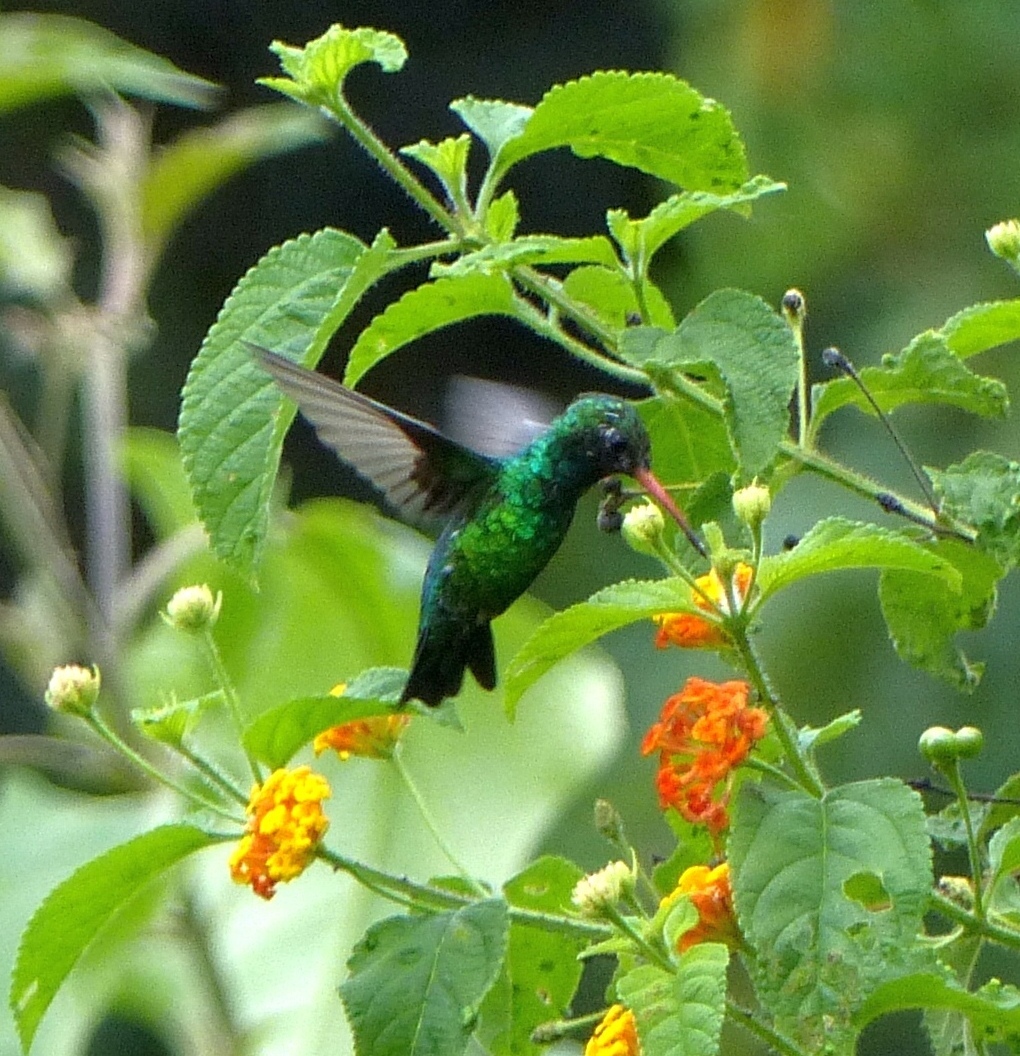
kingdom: Animalia
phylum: Chordata
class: Aves
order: Apodiformes
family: Trochilidae
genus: Chlorostilbon
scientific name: Chlorostilbon lucidus
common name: Glittering-bellied emerald
